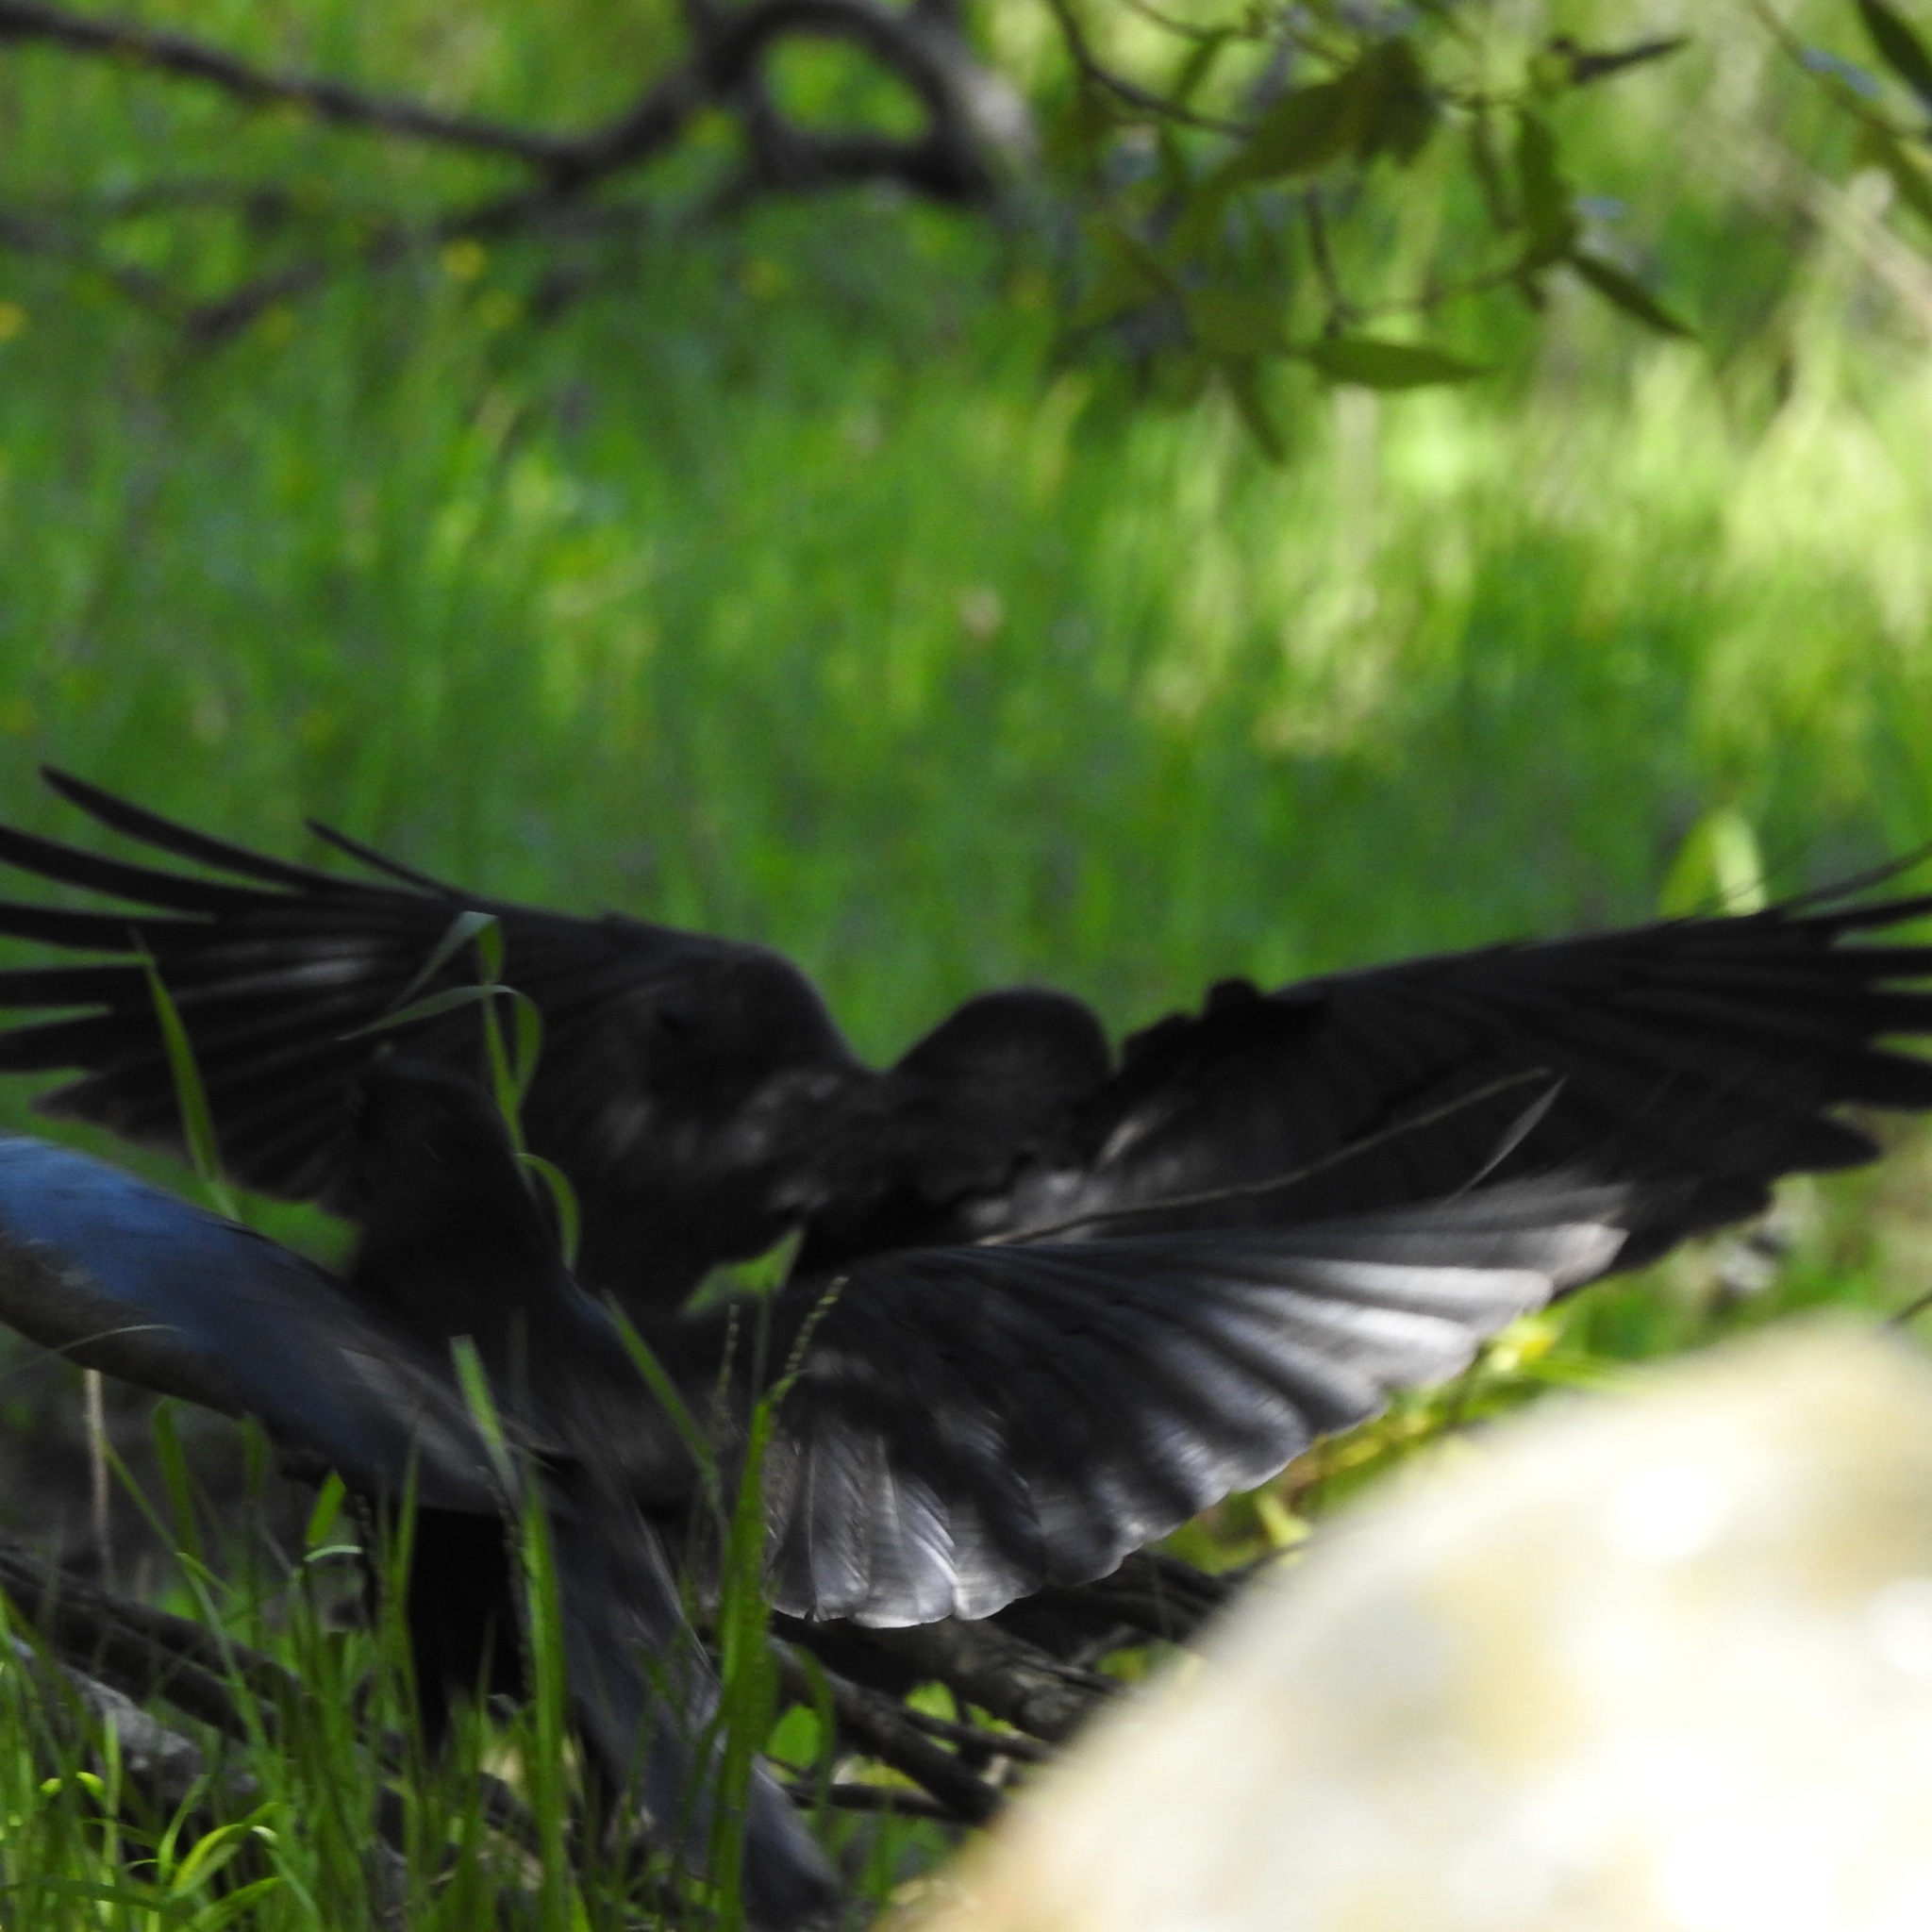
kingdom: Animalia
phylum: Chordata
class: Aves
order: Passeriformes
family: Corvidae
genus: Corvus
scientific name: Corvus corax
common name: Common raven
